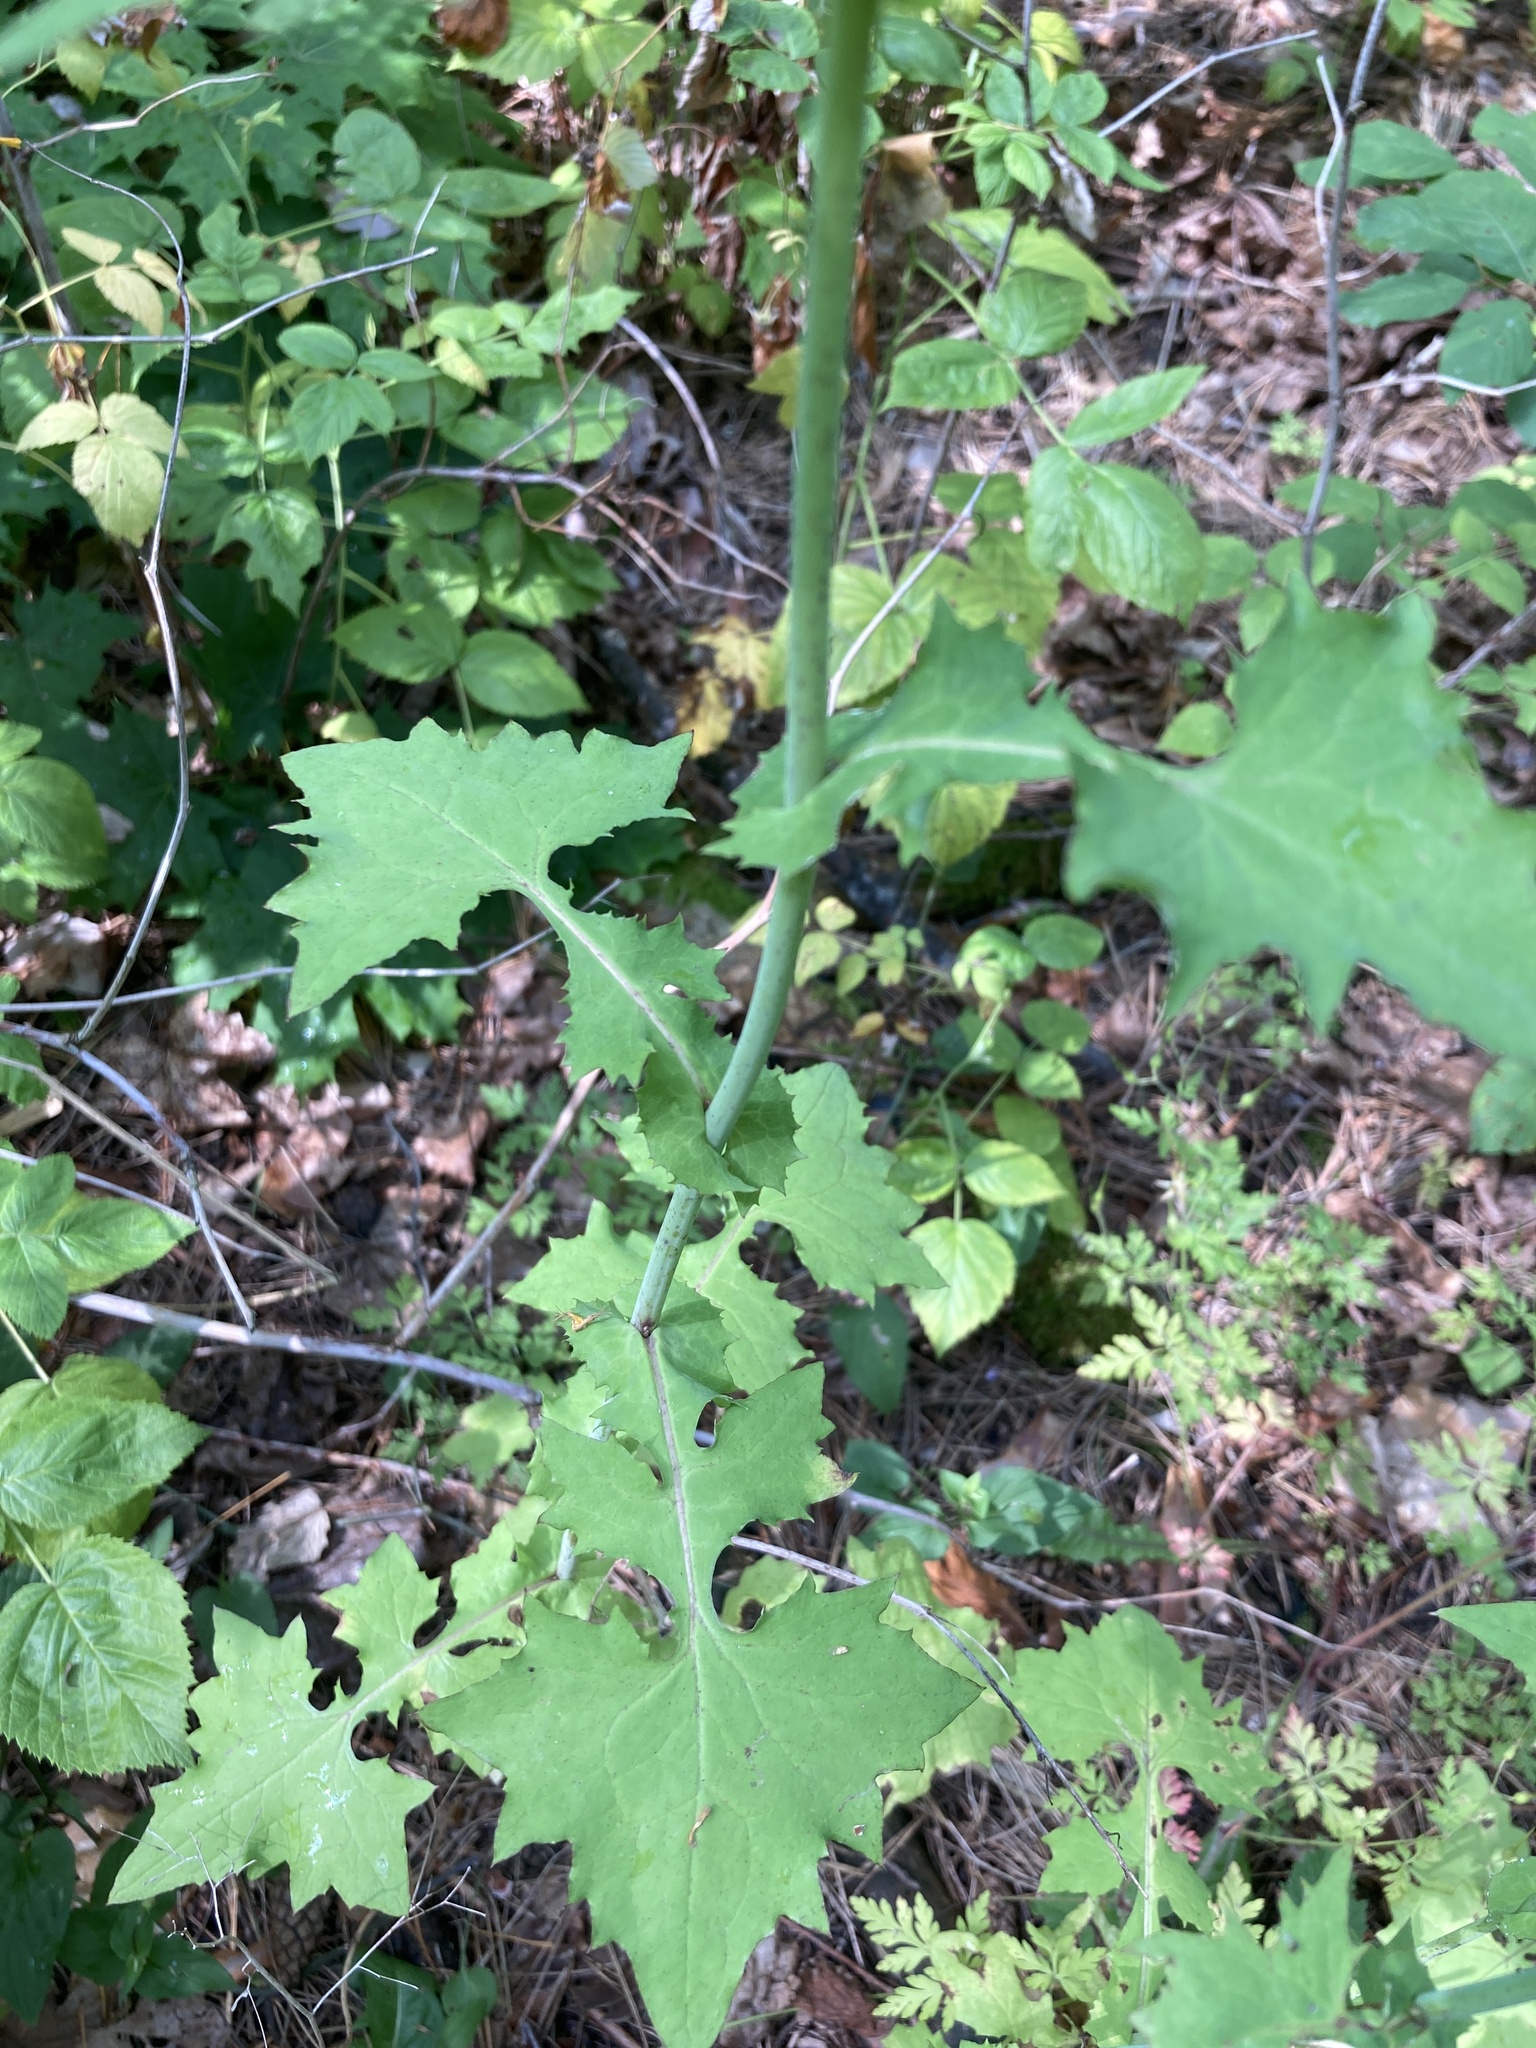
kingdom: Plantae
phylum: Tracheophyta
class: Magnoliopsida
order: Asterales
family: Asteraceae
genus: Mycelis
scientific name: Mycelis muralis
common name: Wall lettuce
